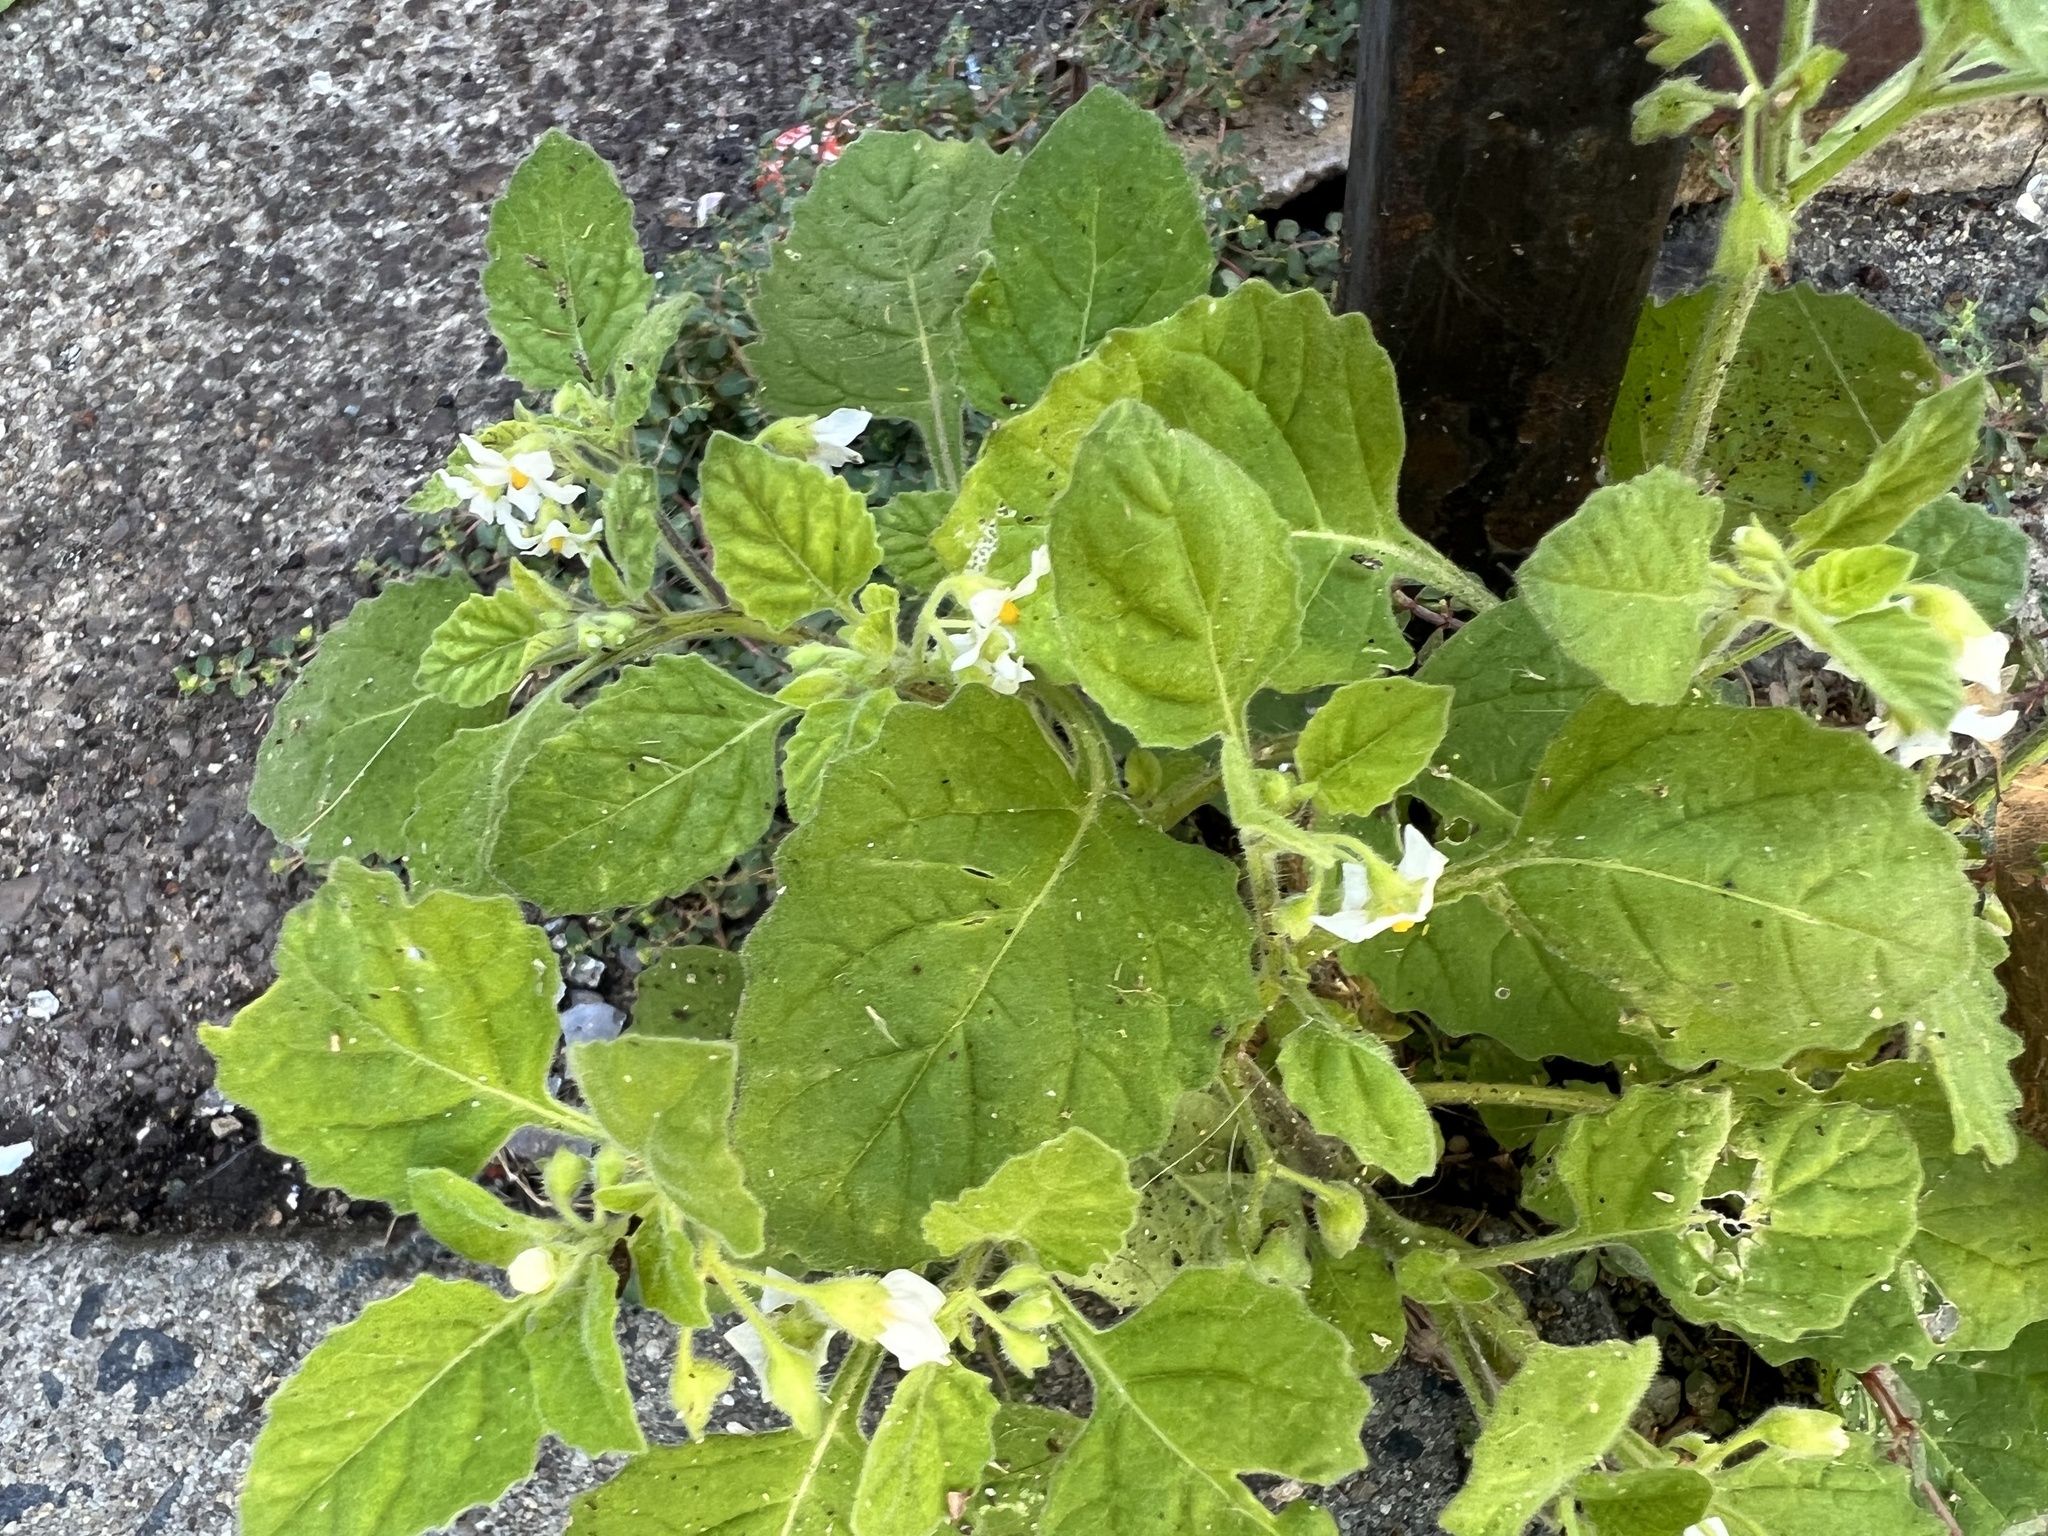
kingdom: Plantae
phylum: Tracheophyta
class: Magnoliopsida
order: Solanales
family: Solanaceae
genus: Solanum
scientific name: Solanum sarrachoides
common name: Leafy-fruited nightshade
